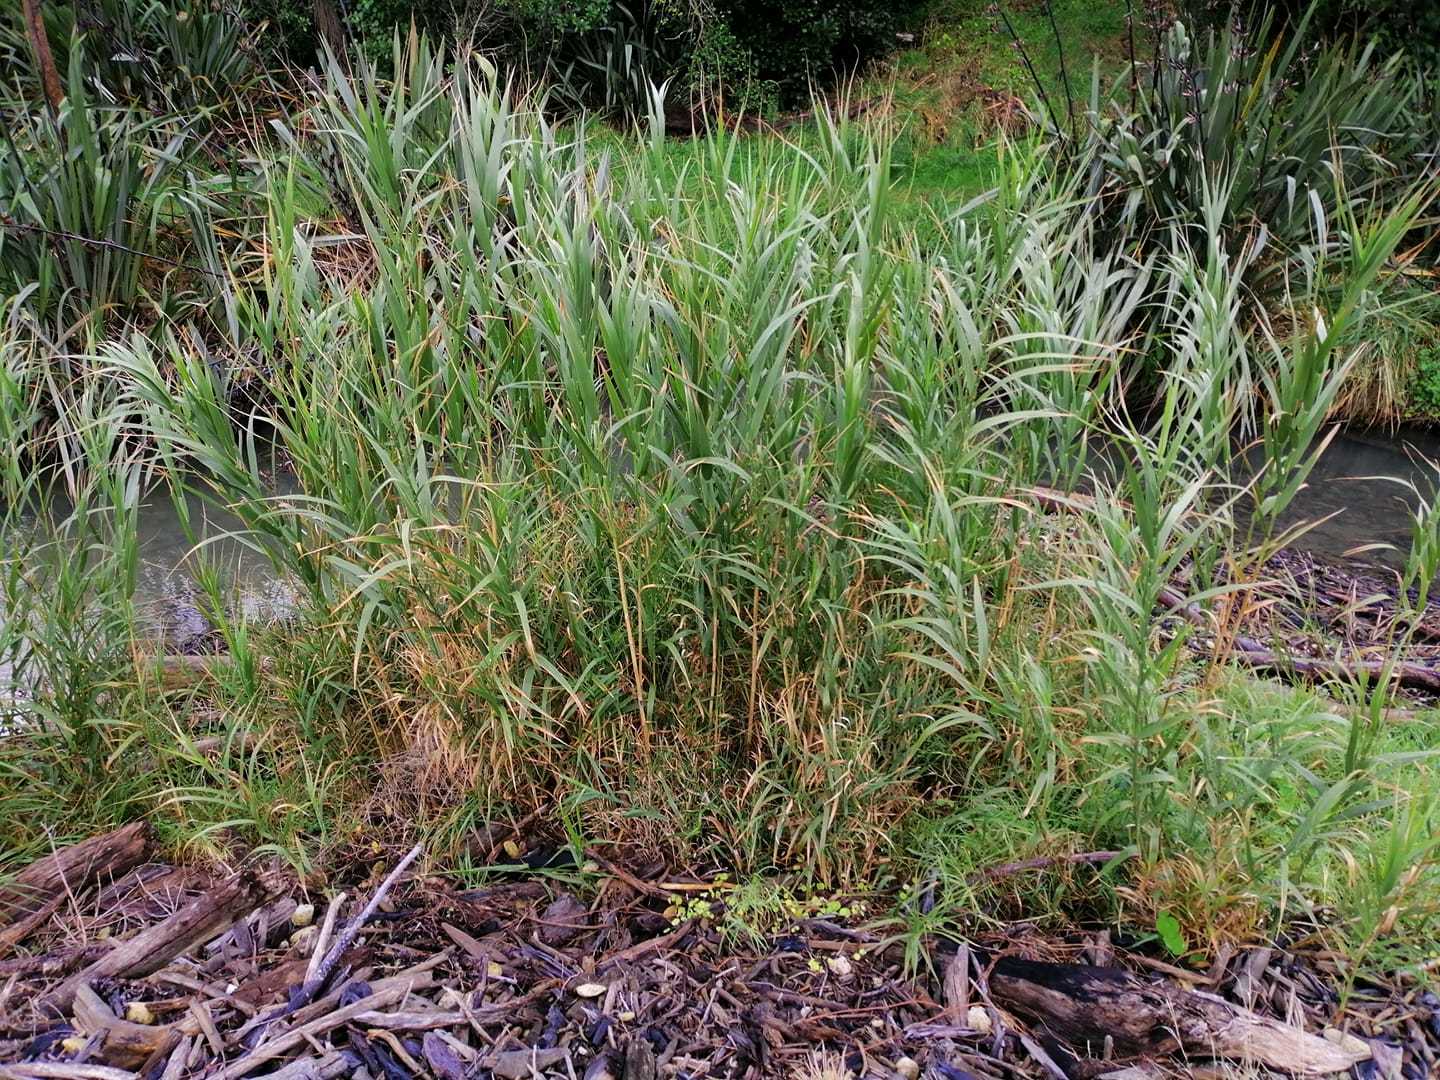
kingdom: Plantae
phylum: Tracheophyta
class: Liliopsida
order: Poales
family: Poaceae
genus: Phragmites
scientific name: Phragmites karka
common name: Tropical reed
